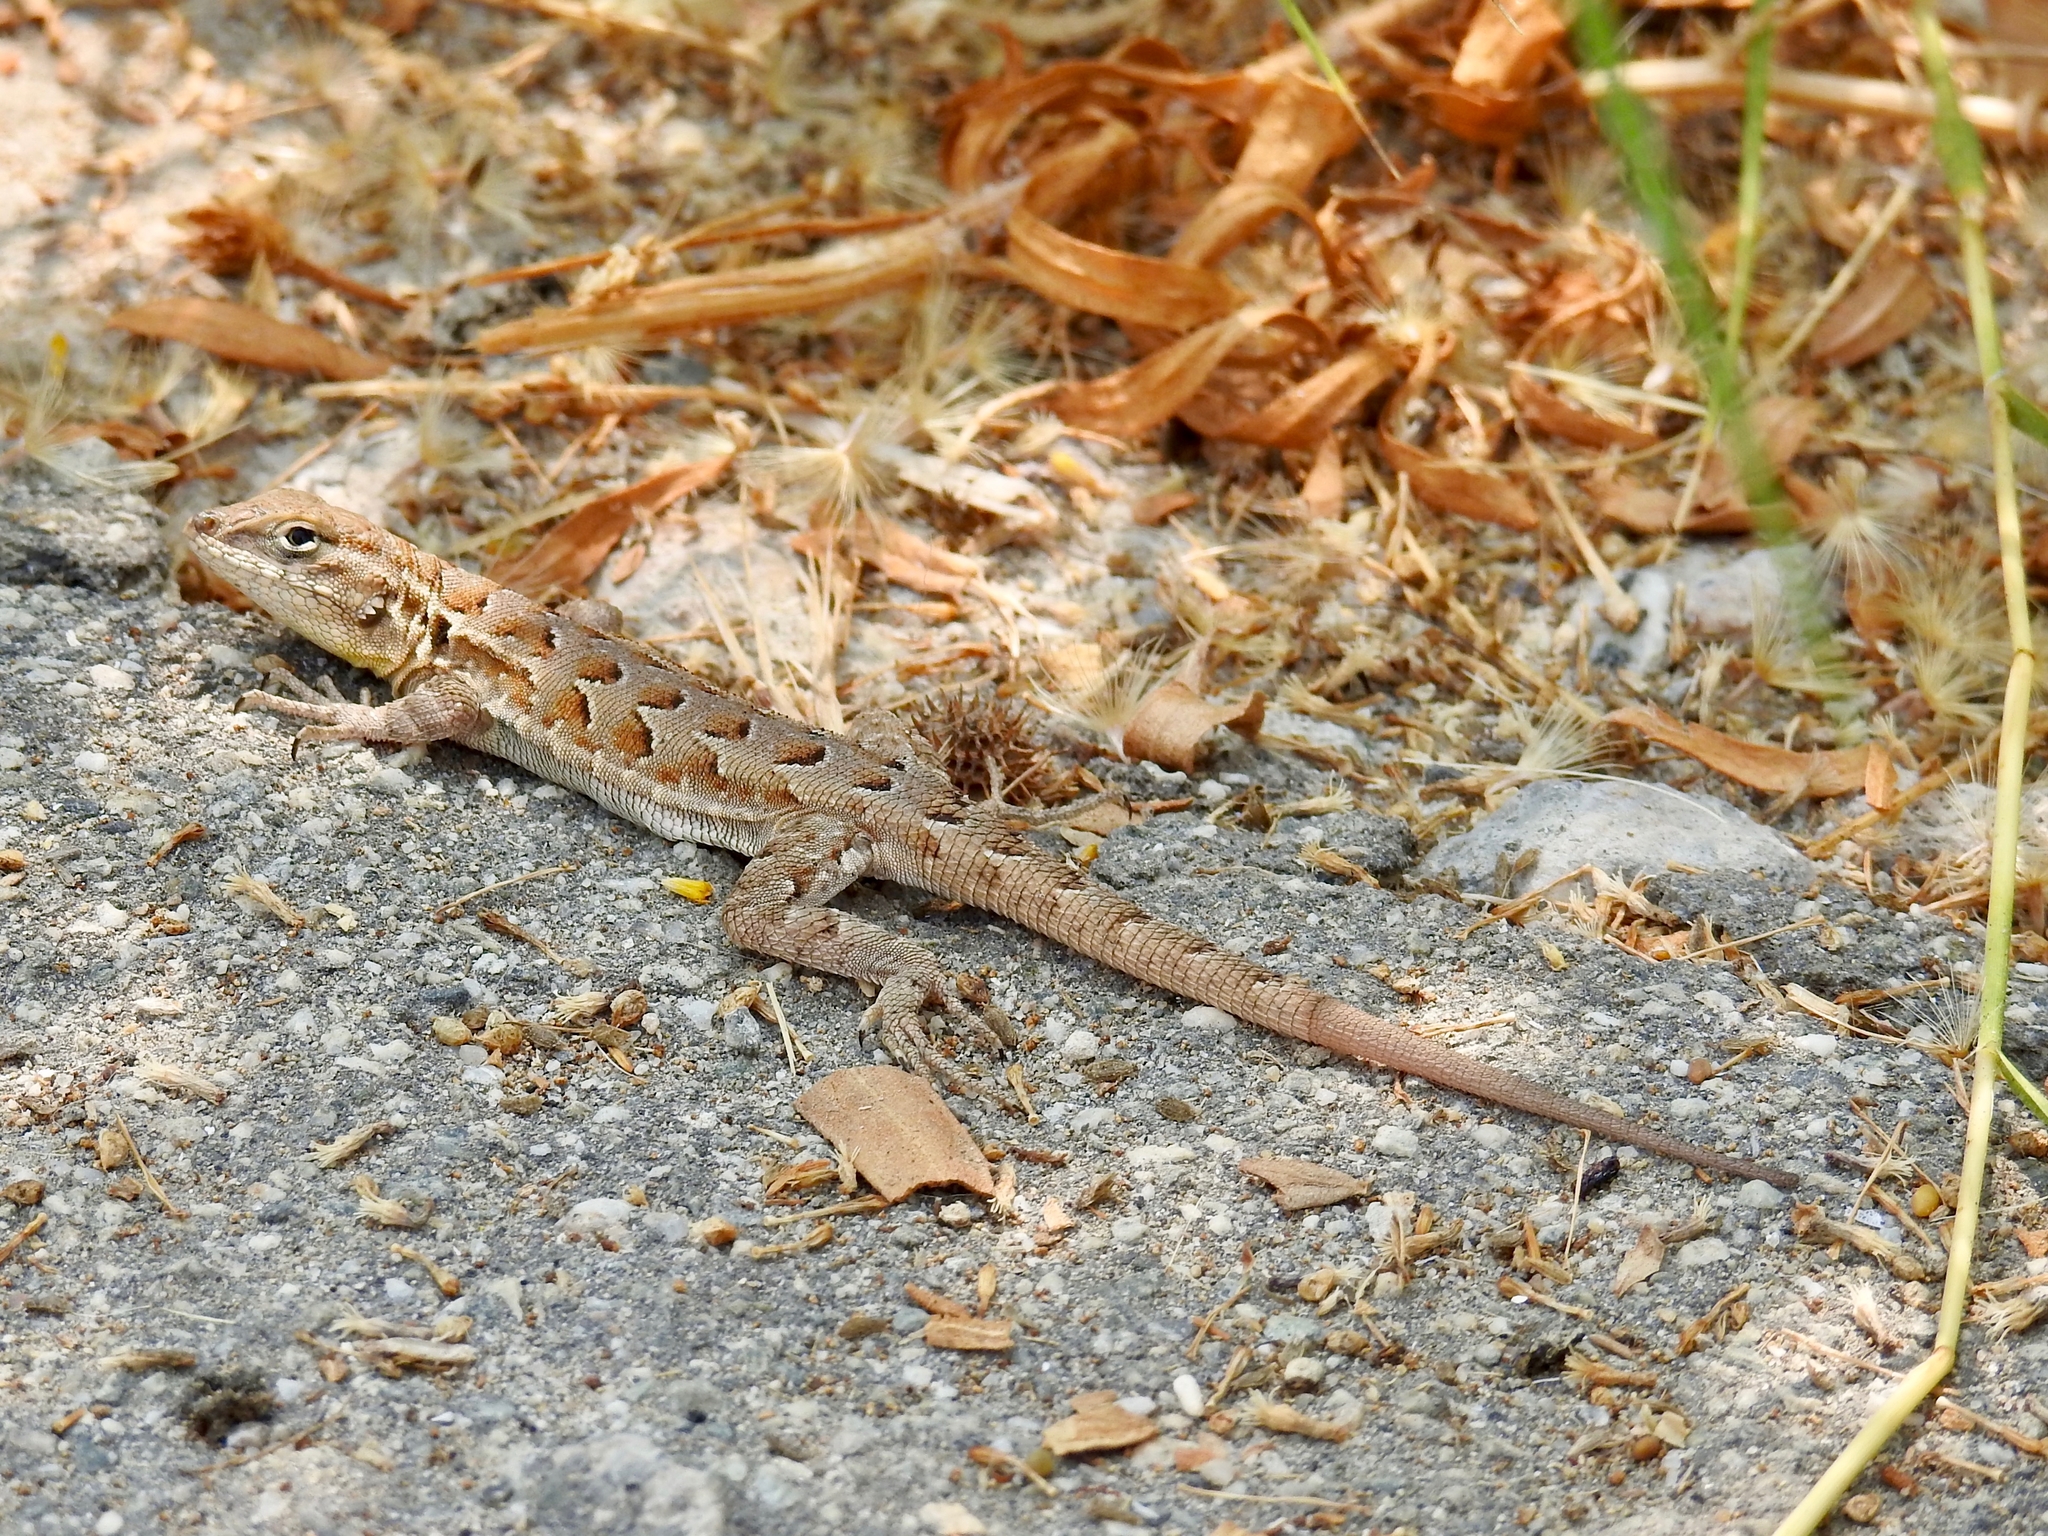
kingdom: Animalia
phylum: Chordata
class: Squamata
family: Phrynosomatidae
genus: Uta
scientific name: Uta stansburiana
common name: Side-blotched lizard
